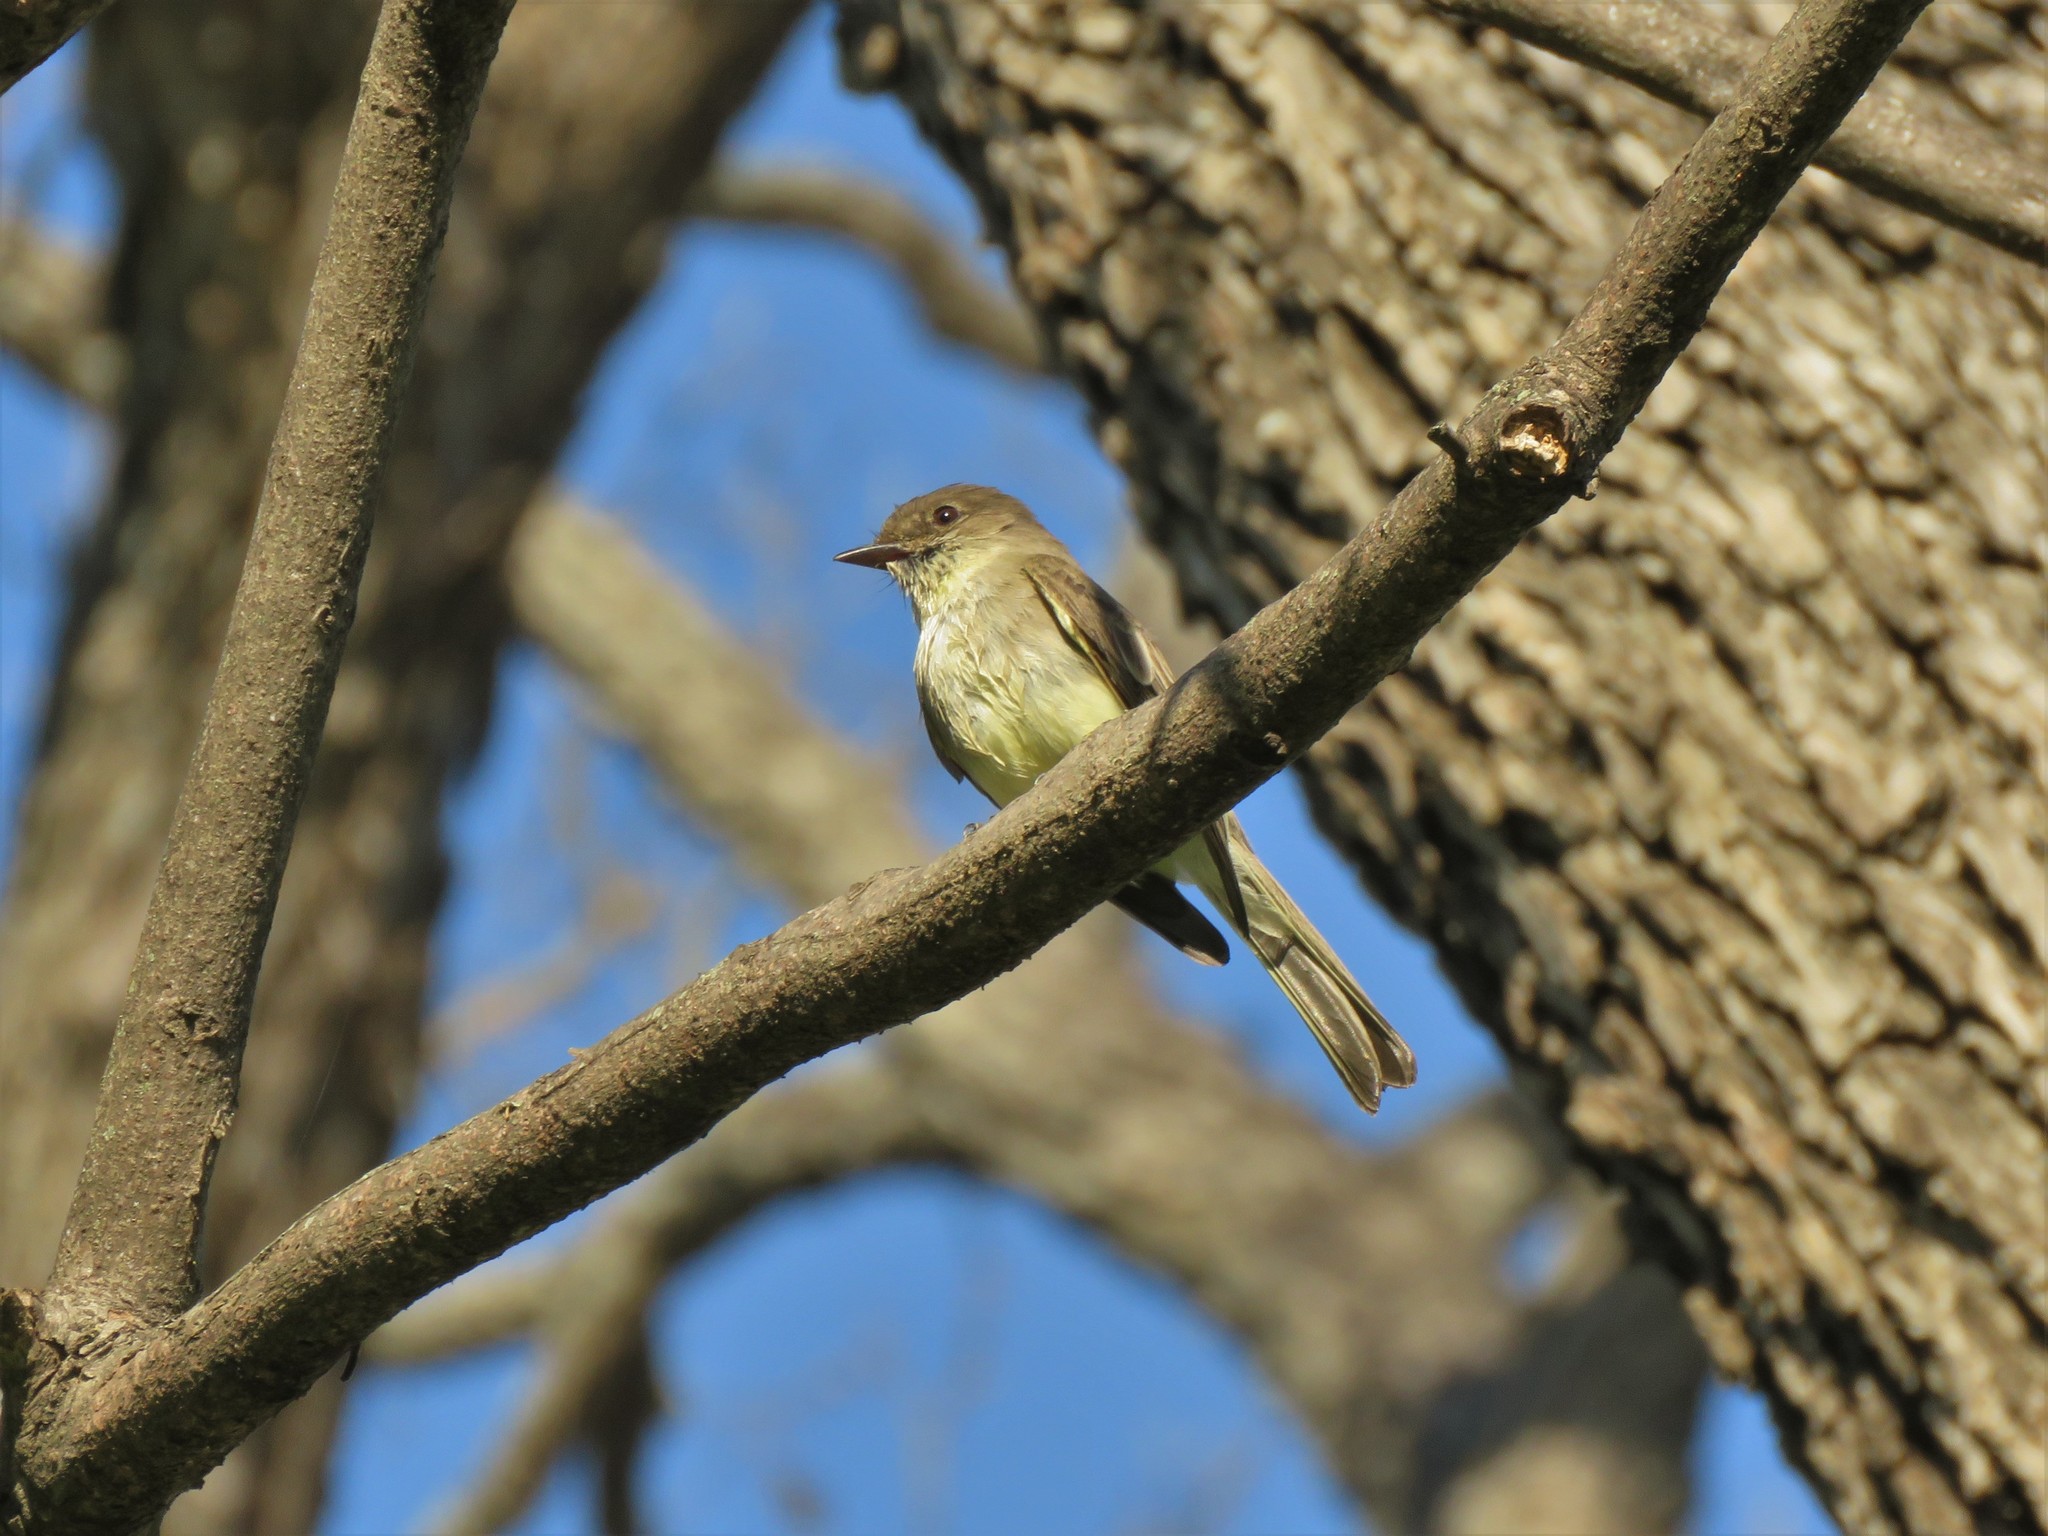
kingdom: Animalia
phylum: Chordata
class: Aves
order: Passeriformes
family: Tyrannidae
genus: Sayornis
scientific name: Sayornis phoebe
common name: Eastern phoebe
